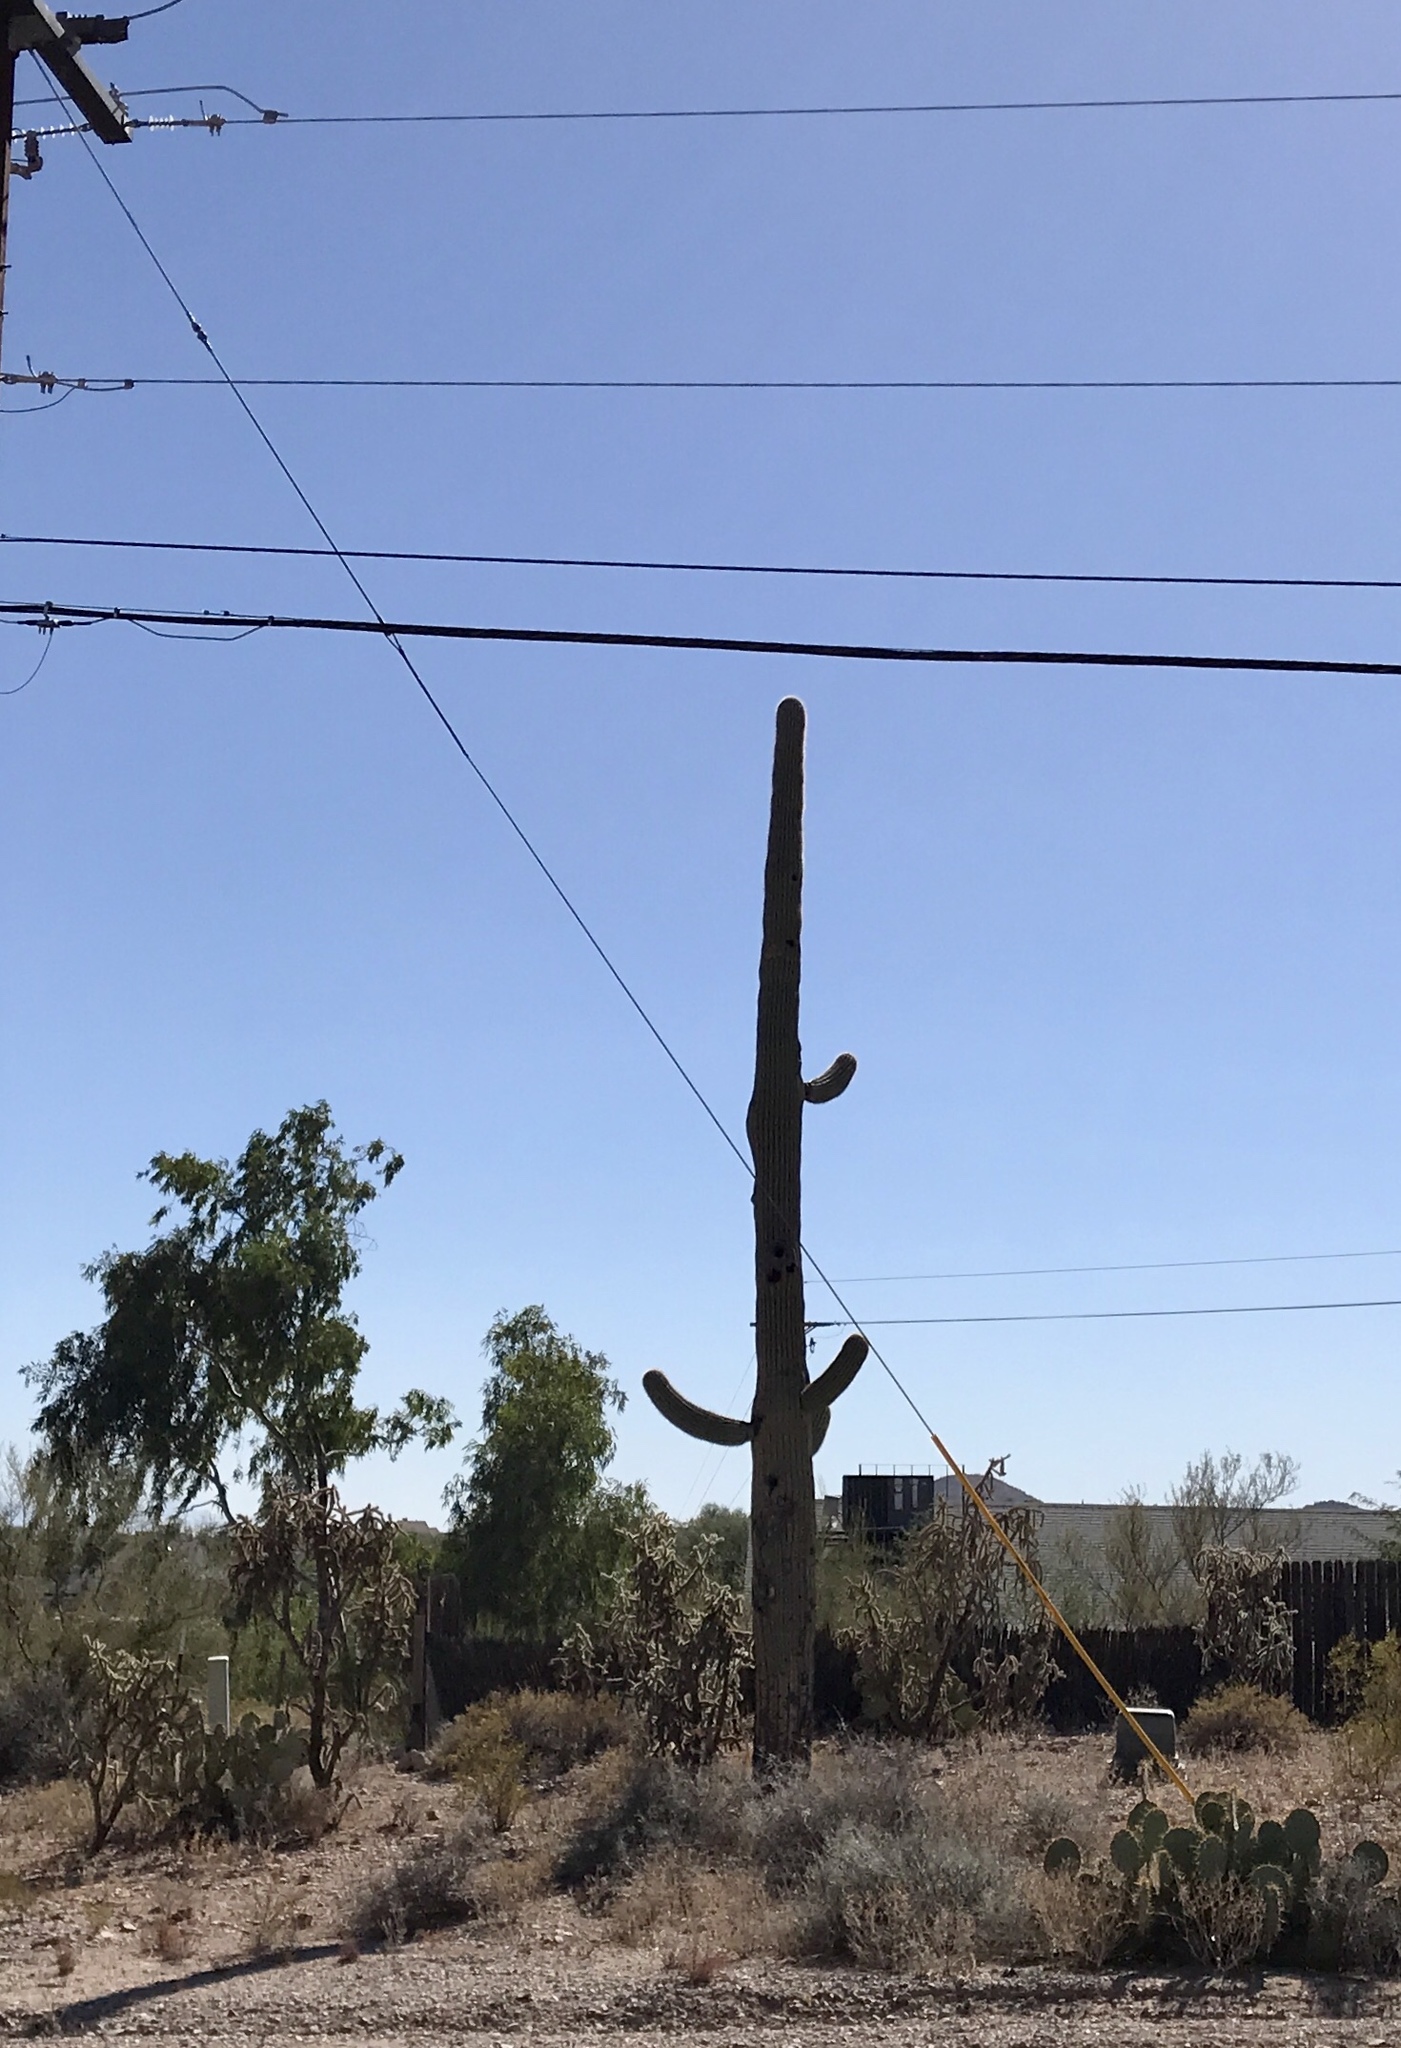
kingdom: Plantae
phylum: Tracheophyta
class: Magnoliopsida
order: Caryophyllales
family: Cactaceae
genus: Carnegiea
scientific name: Carnegiea gigantea
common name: Saguaro
